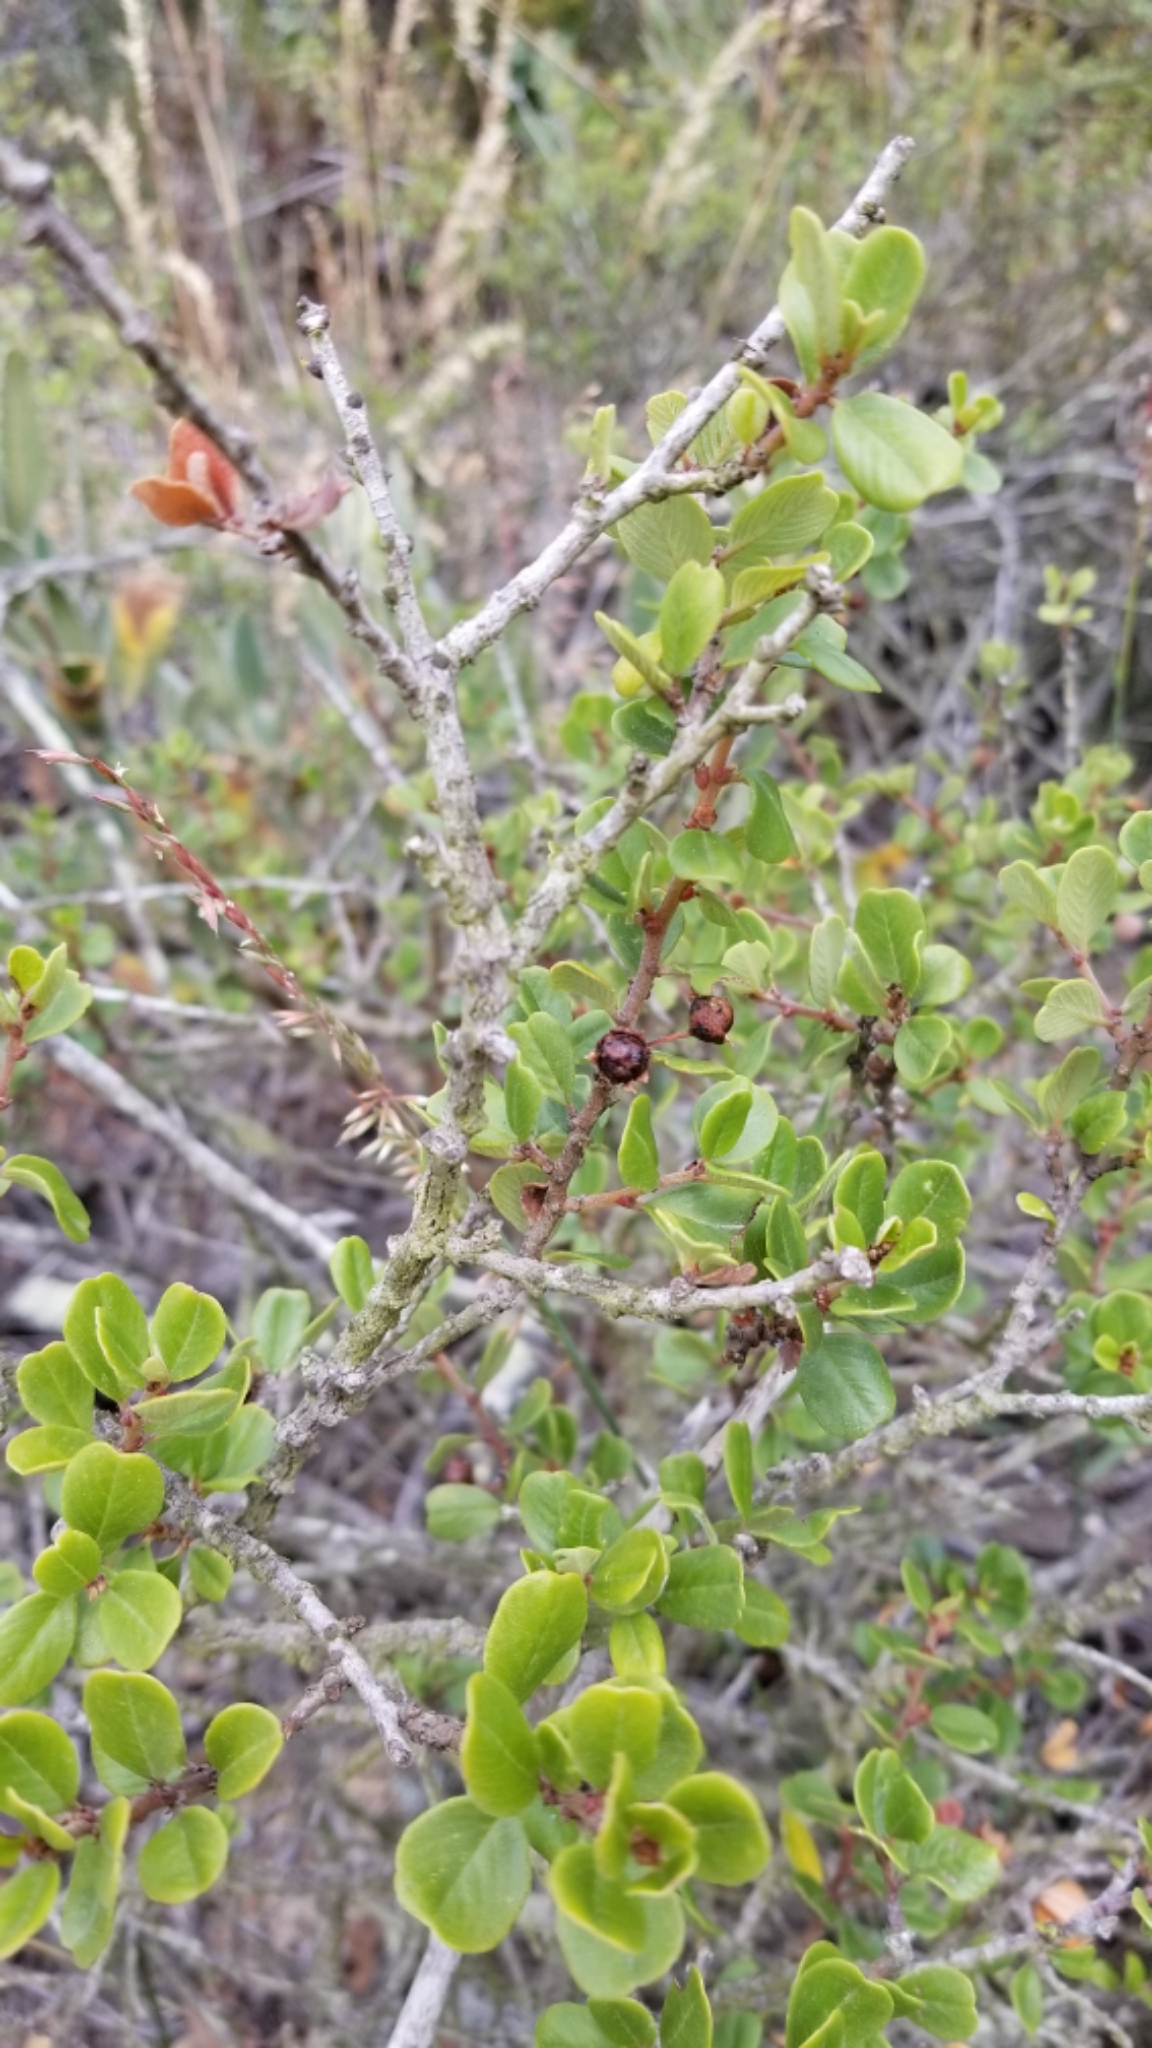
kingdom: Plantae
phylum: Tracheophyta
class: Magnoliopsida
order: Rosales
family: Rhamnaceae
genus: Ceanothus
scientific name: Ceanothus verrucosus
